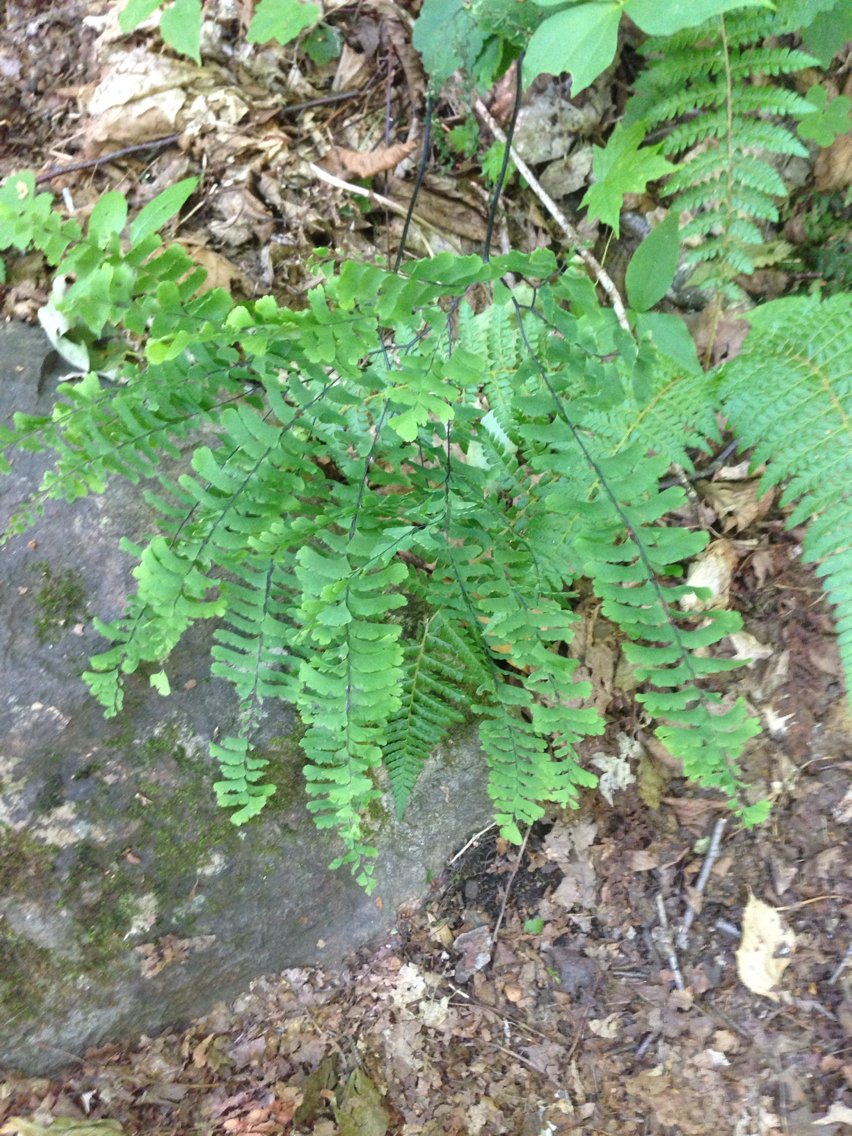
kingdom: Plantae
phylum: Tracheophyta
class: Polypodiopsida
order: Polypodiales
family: Pteridaceae
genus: Adiantum
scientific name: Adiantum pedatum
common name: Five-finger fern
